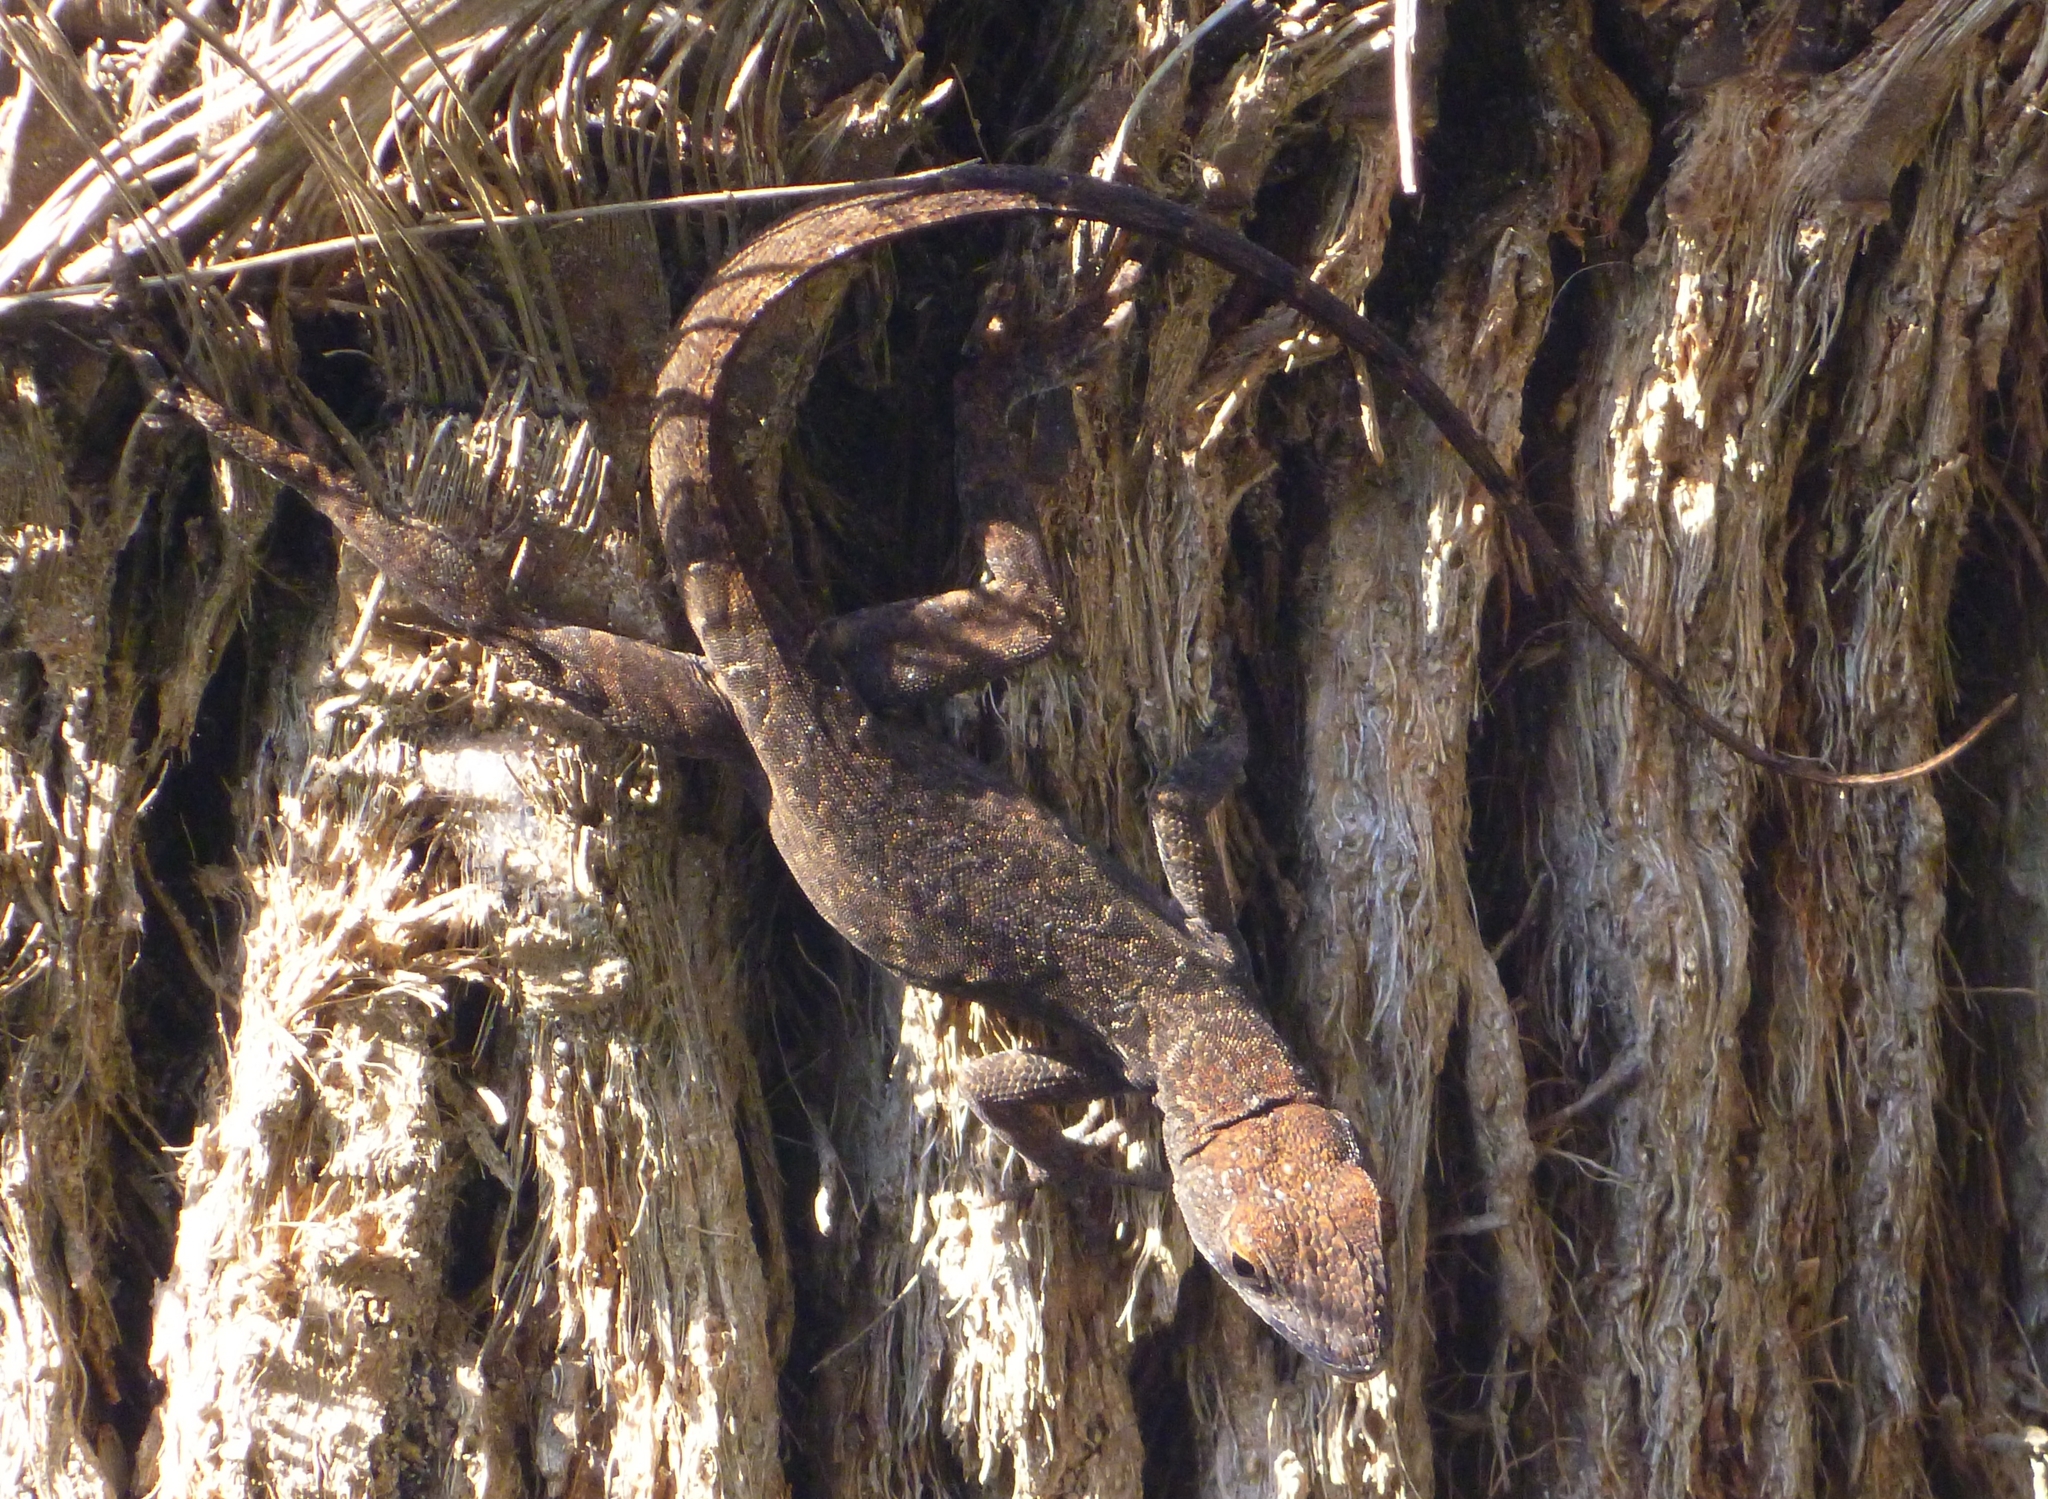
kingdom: Animalia
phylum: Chordata
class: Squamata
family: Dactyloidae
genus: Anolis
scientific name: Anolis sagrei
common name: Brown anole
